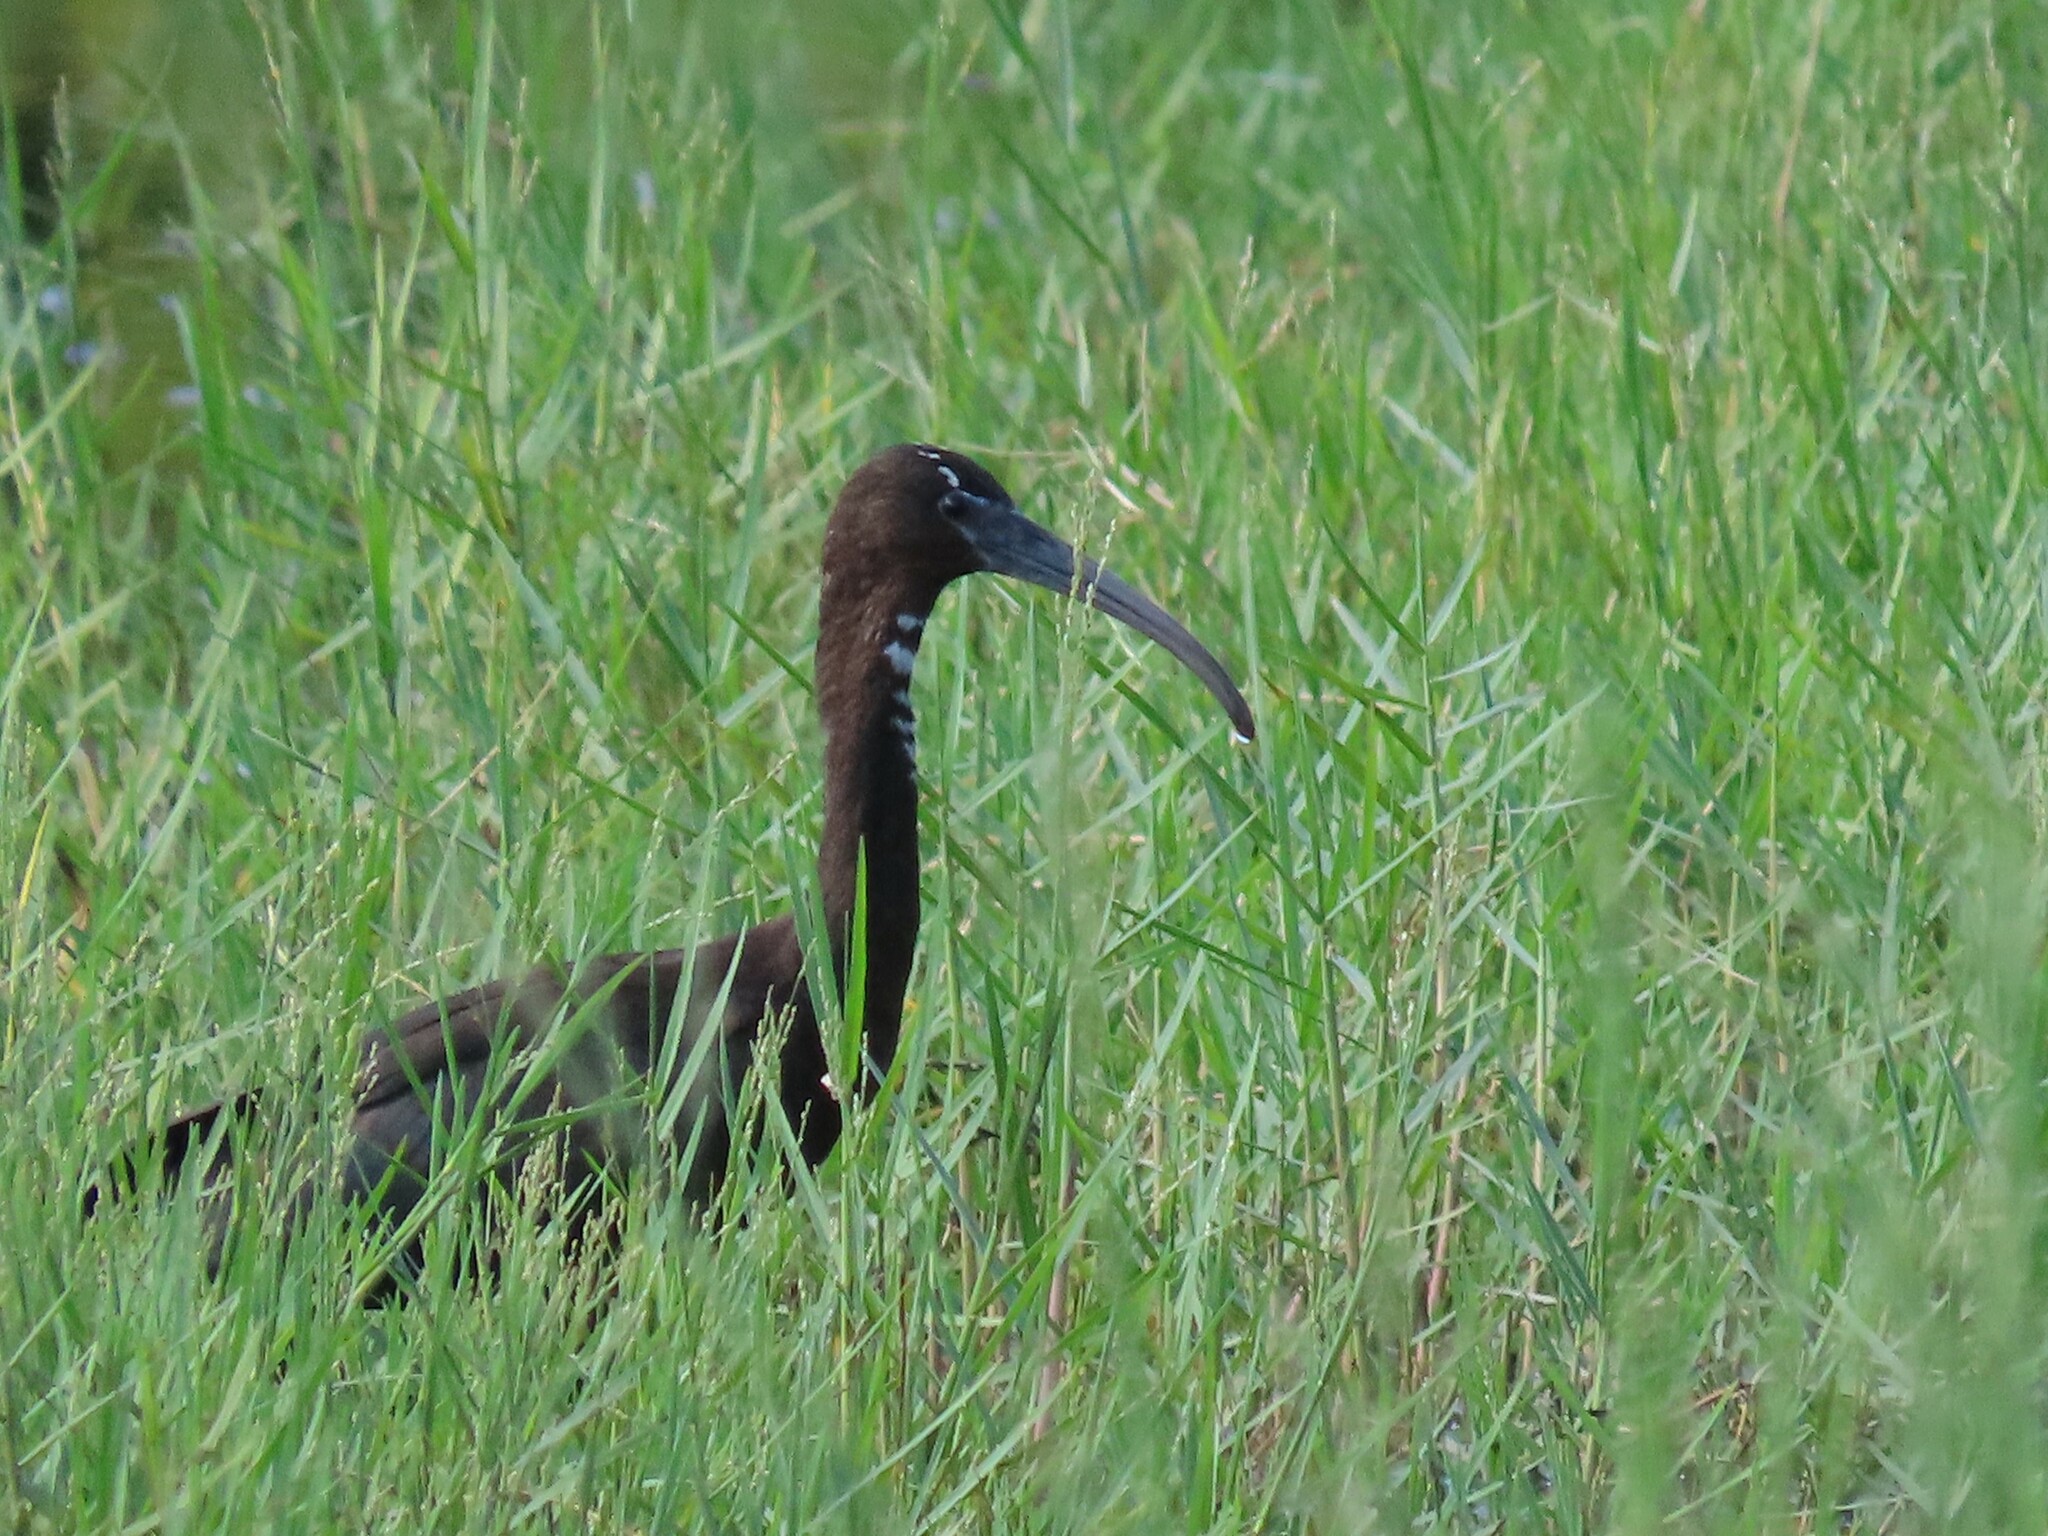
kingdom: Animalia
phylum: Chordata
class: Aves
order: Pelecaniformes
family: Threskiornithidae
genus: Plegadis
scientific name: Plegadis falcinellus
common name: Glossy ibis
